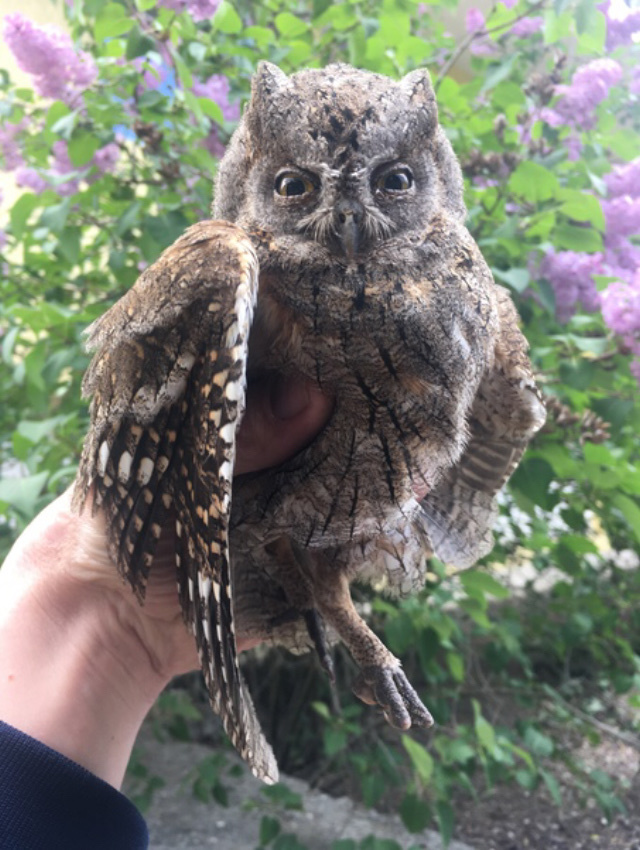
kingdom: Animalia
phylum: Chordata
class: Aves
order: Strigiformes
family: Strigidae
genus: Otus
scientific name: Otus scops
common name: Eurasian scops owl
